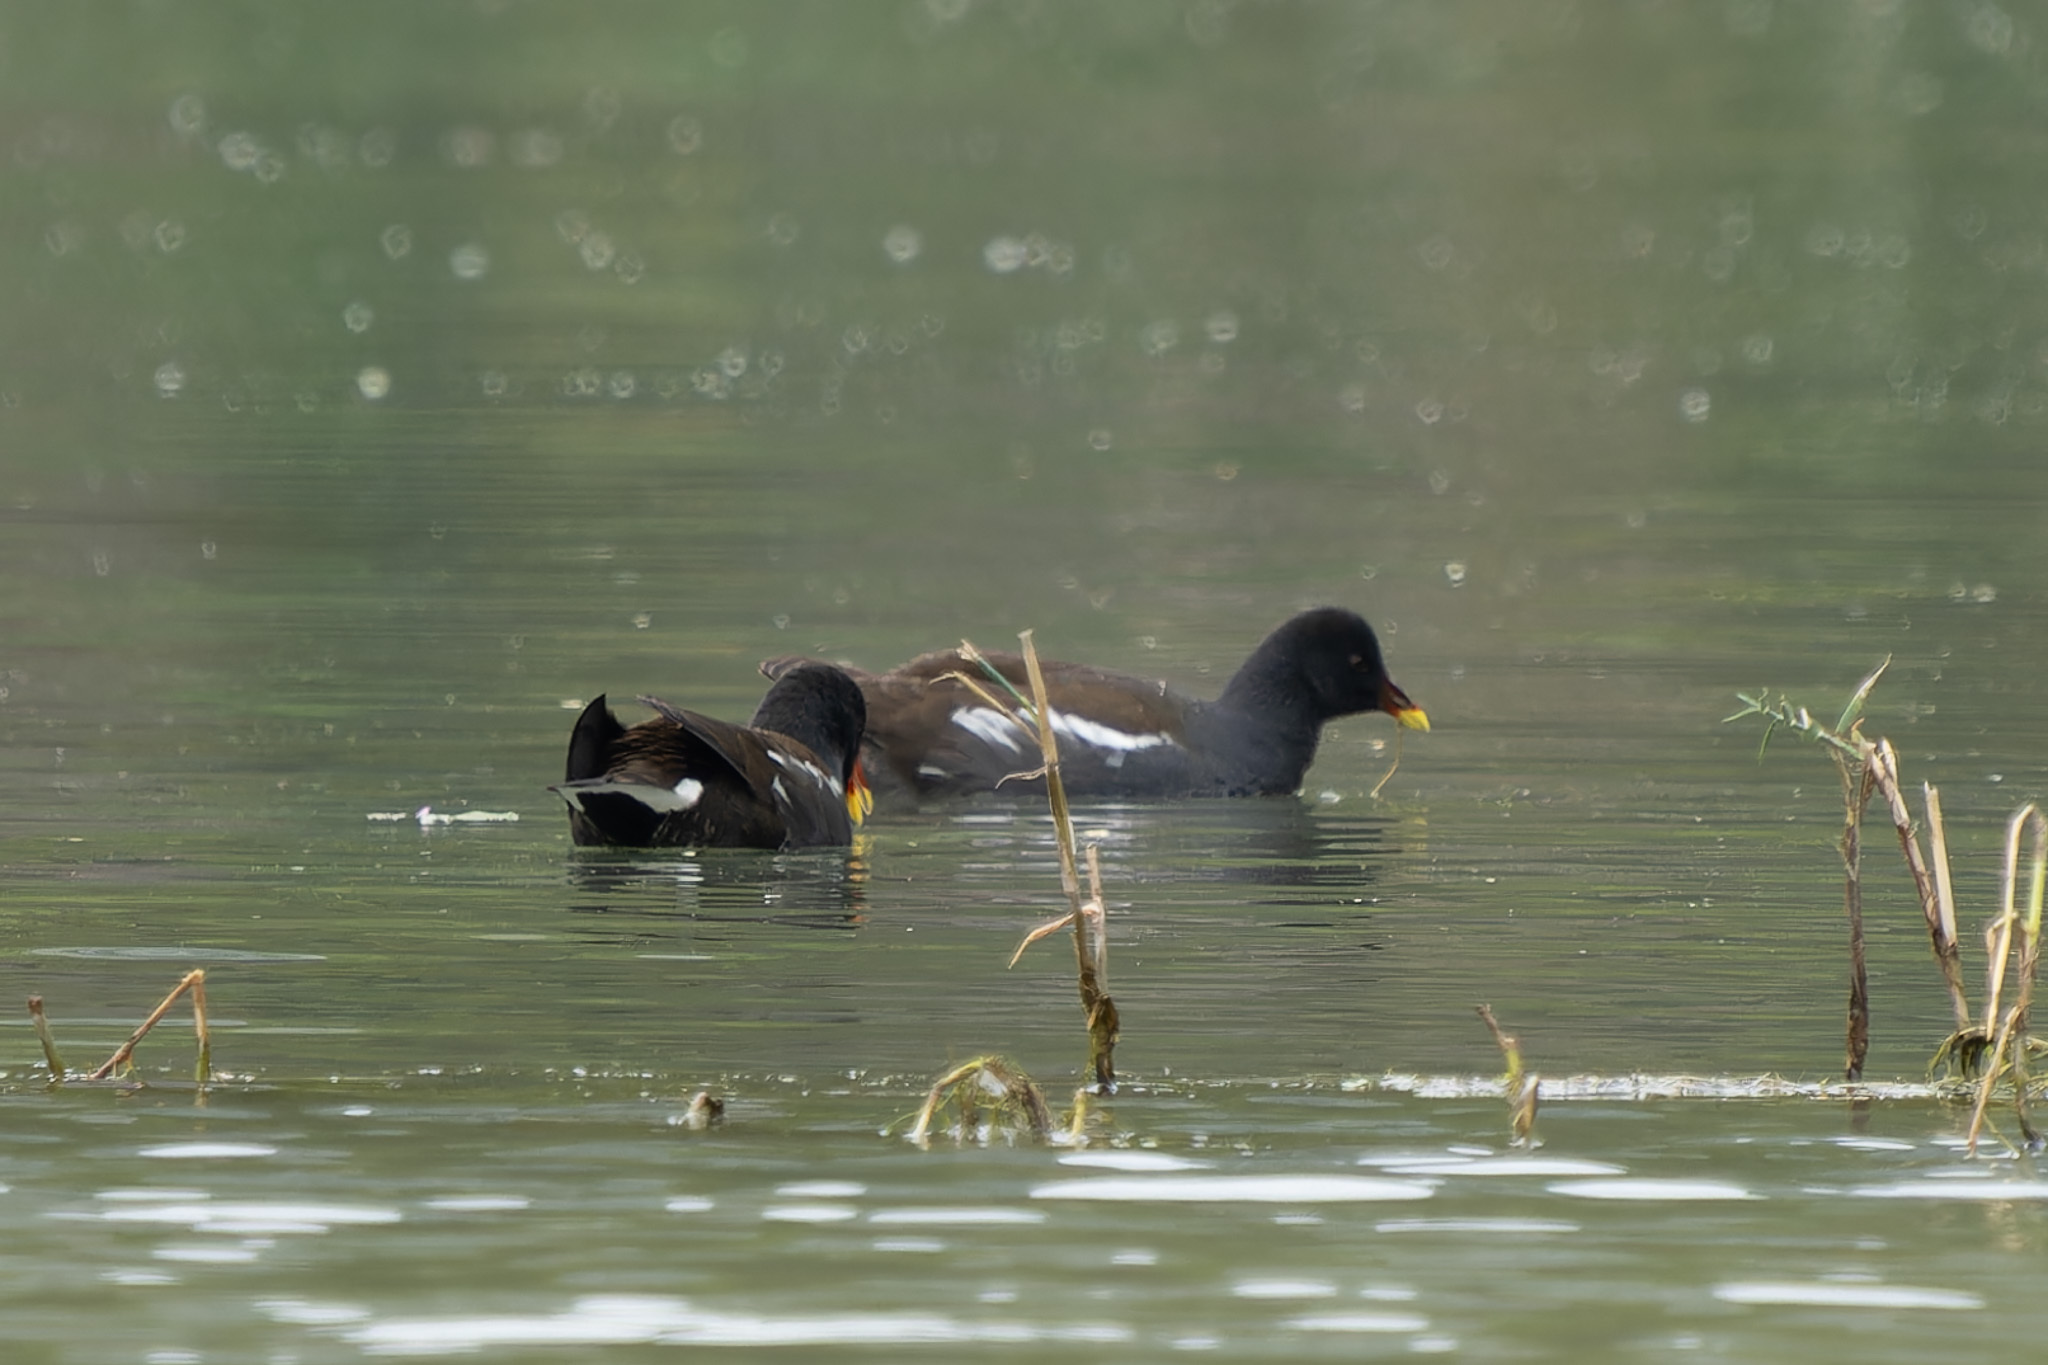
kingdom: Animalia
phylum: Chordata
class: Aves
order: Gruiformes
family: Rallidae
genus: Gallinula
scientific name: Gallinula chloropus
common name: Common moorhen
